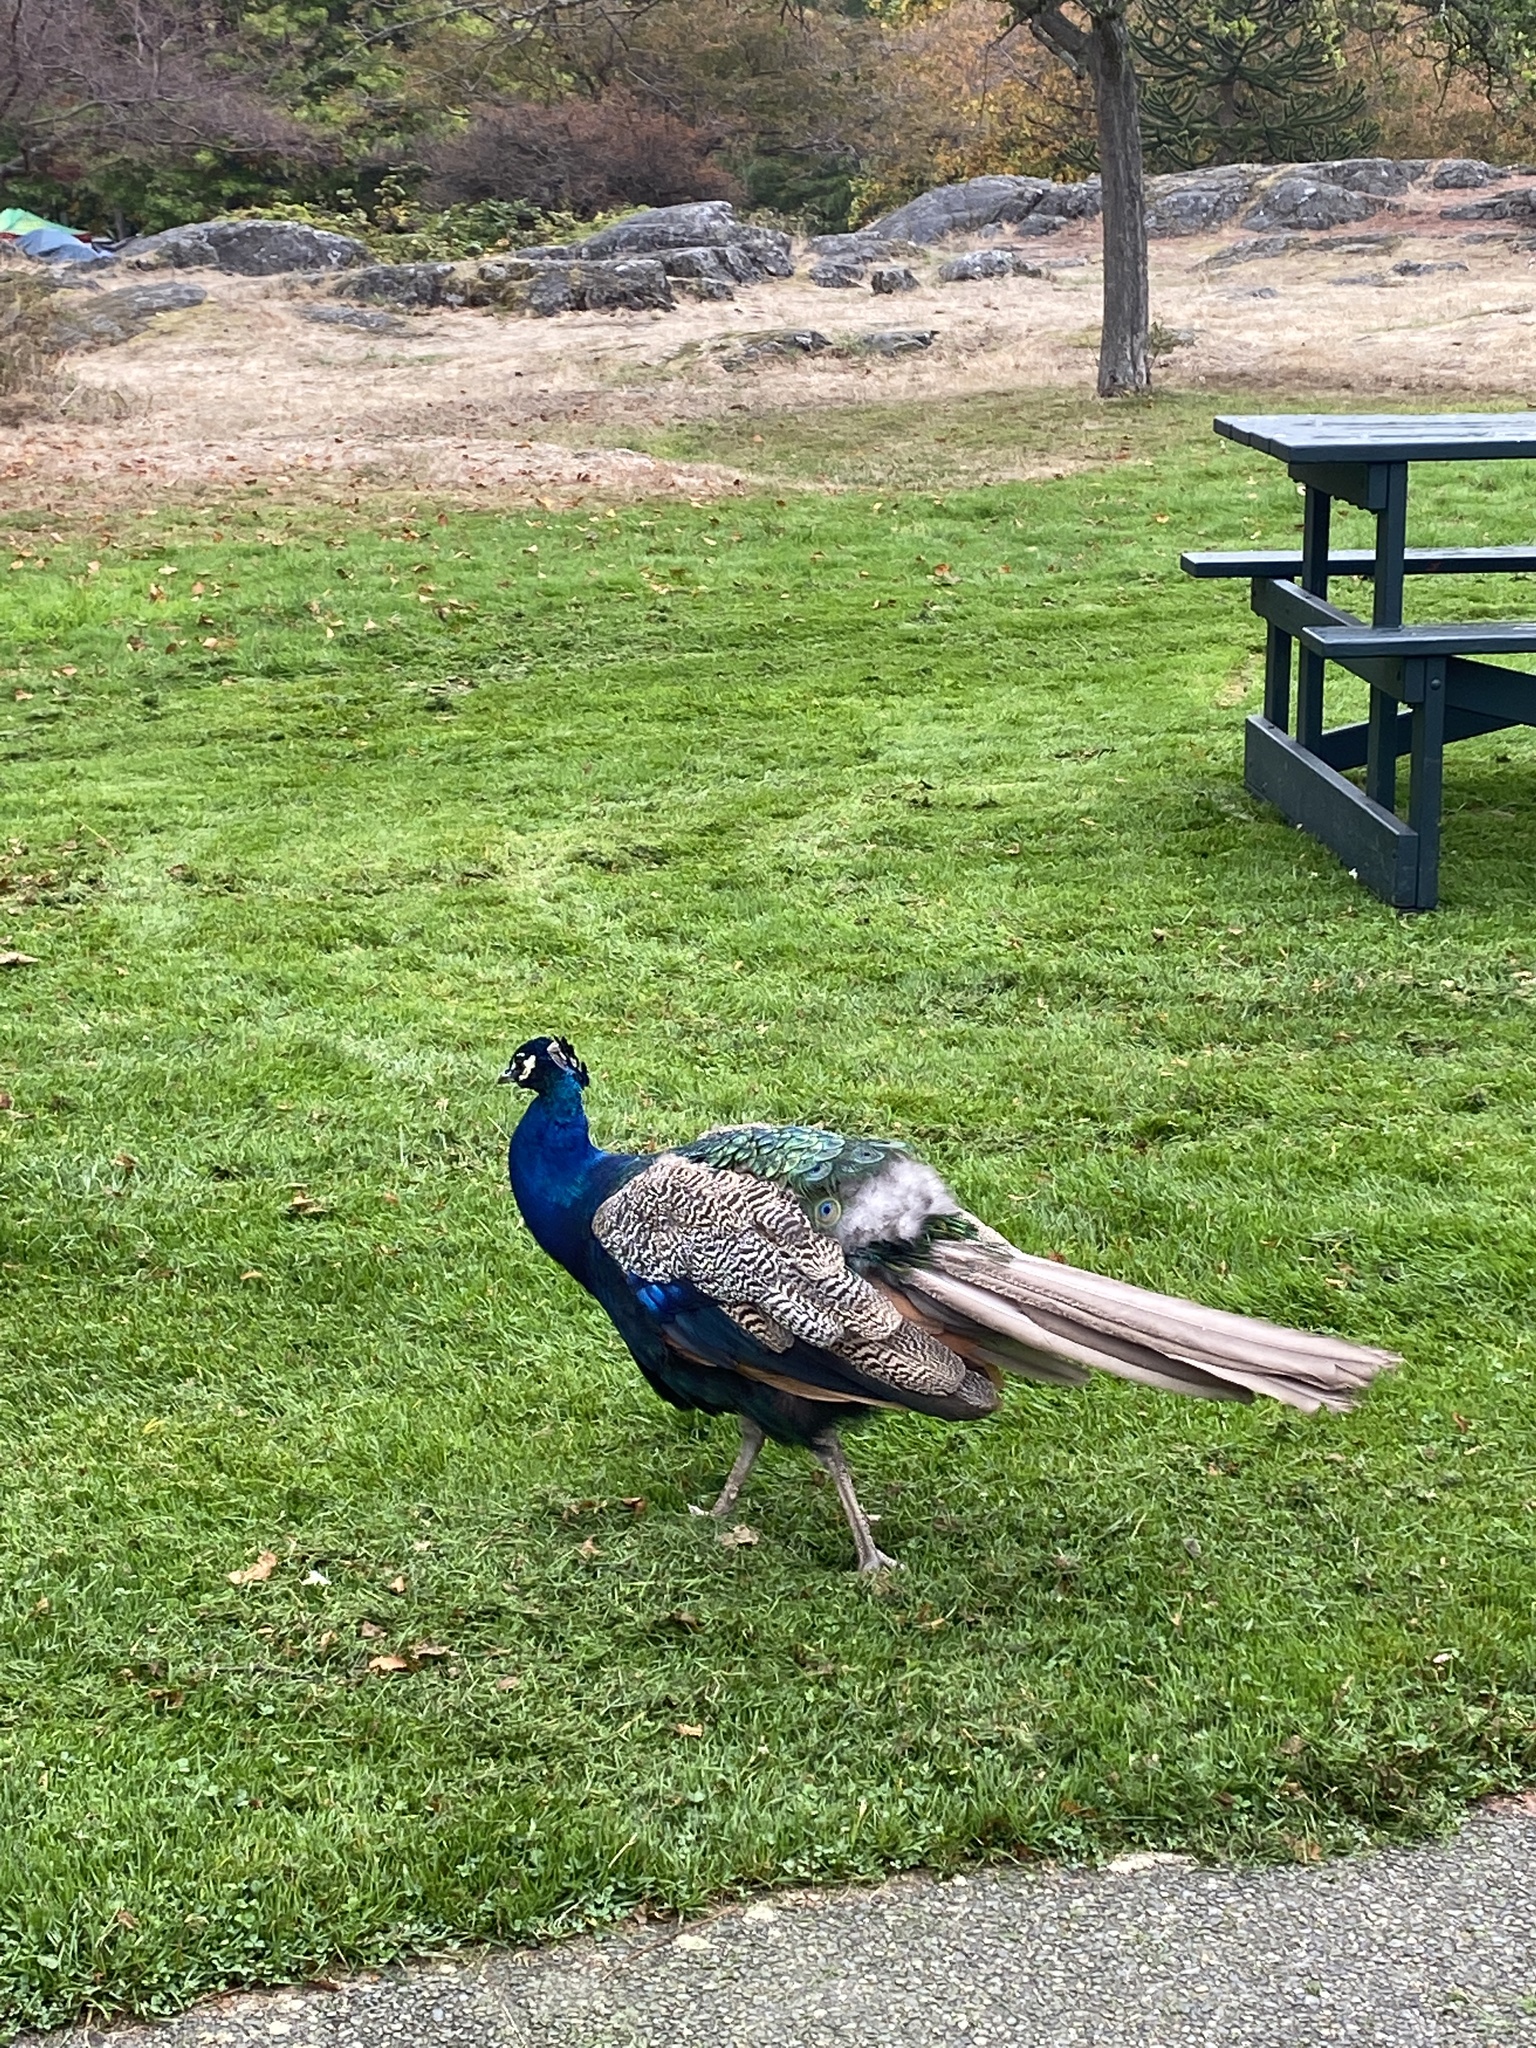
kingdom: Animalia
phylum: Chordata
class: Aves
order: Galliformes
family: Phasianidae
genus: Pavo
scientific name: Pavo cristatus
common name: Indian peafowl
